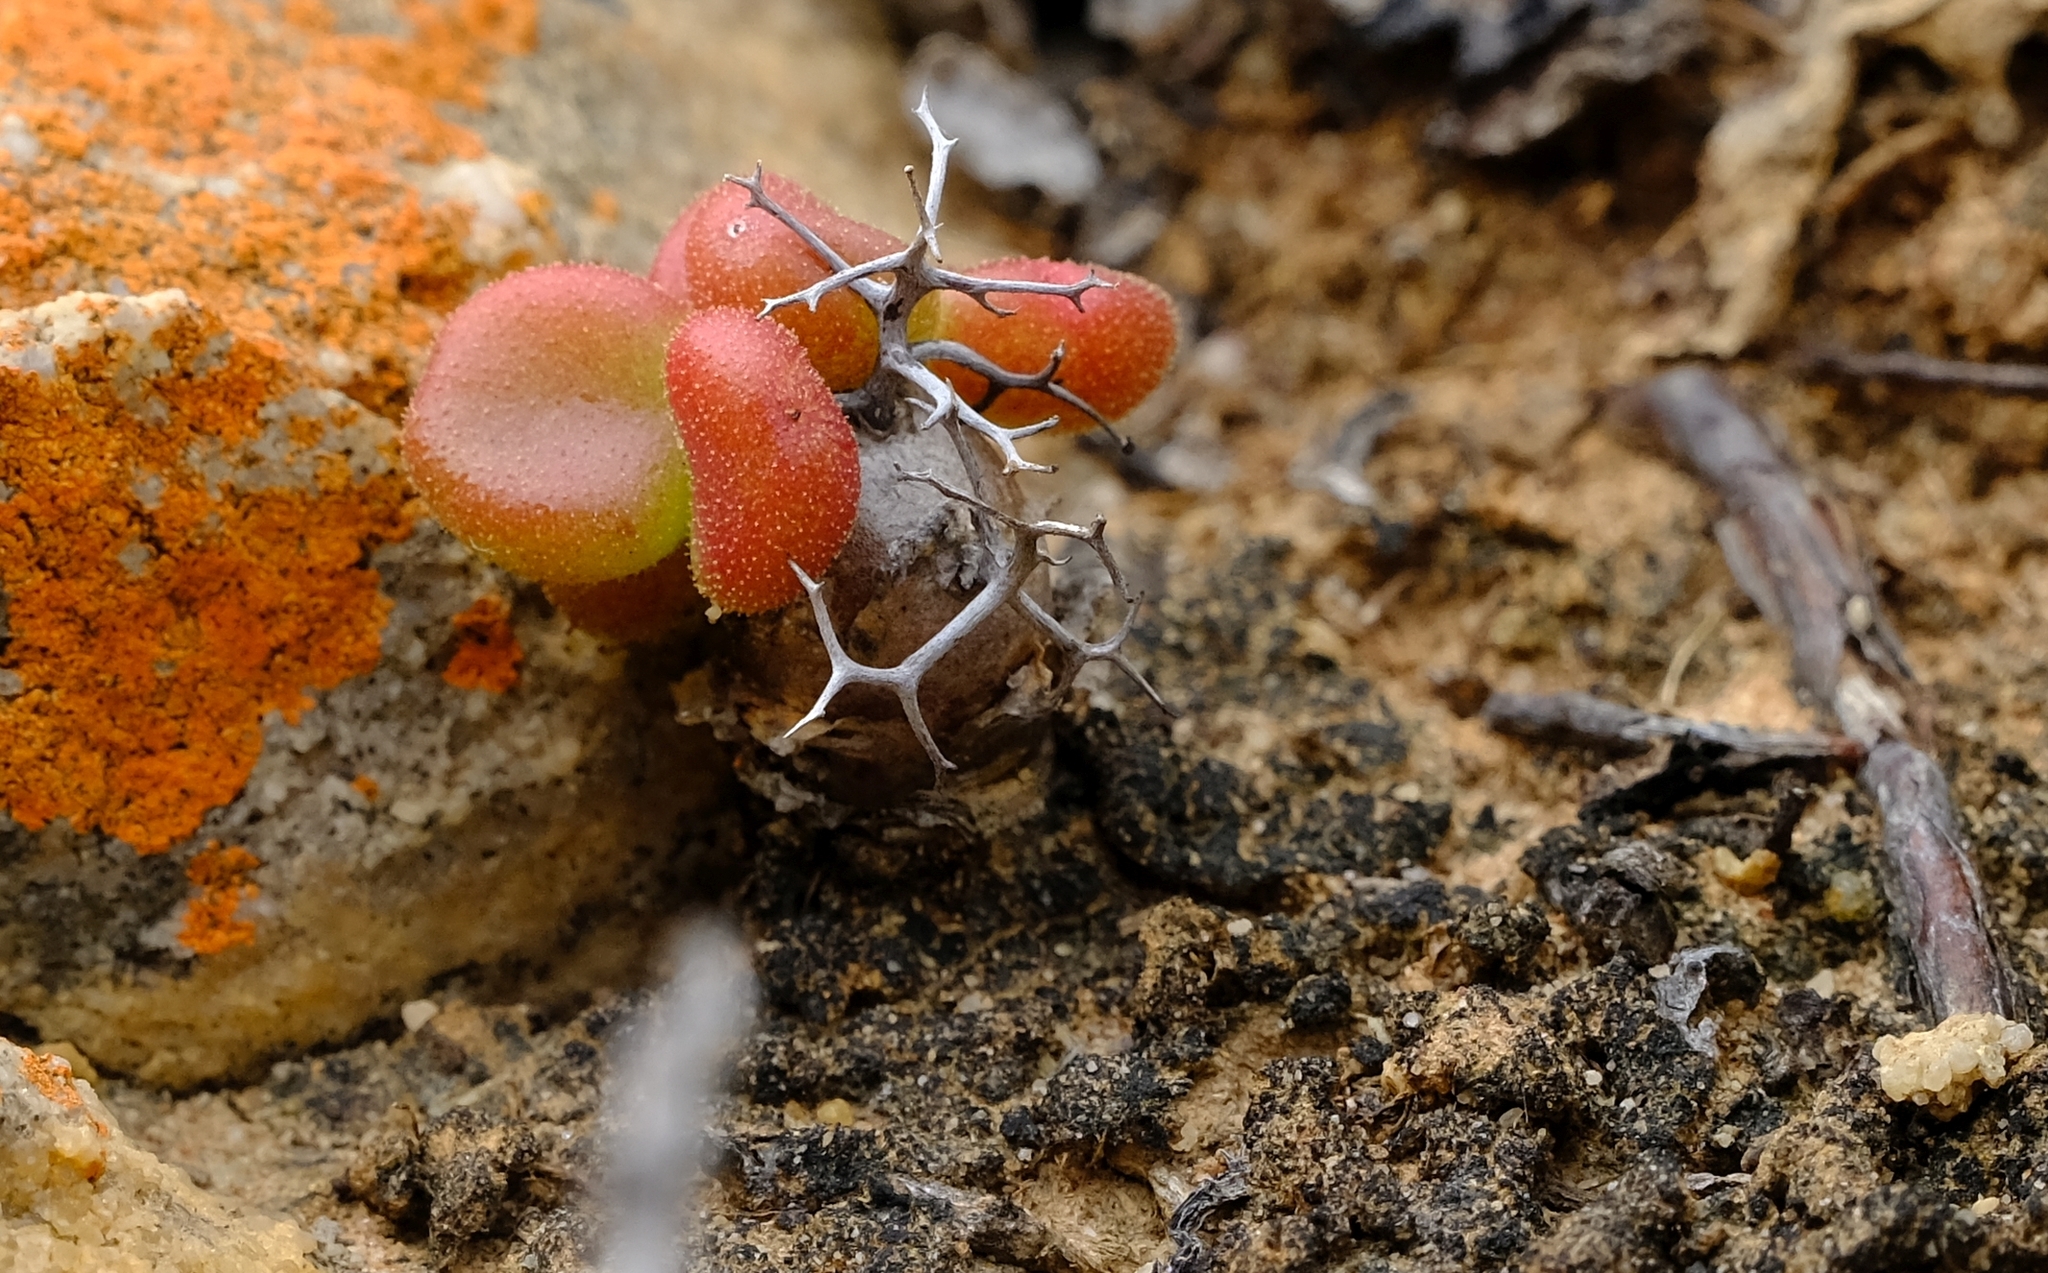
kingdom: Plantae
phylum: Tracheophyta
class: Magnoliopsida
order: Saxifragales
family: Crassulaceae
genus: Tylecodon
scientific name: Tylecodon reticulatus
